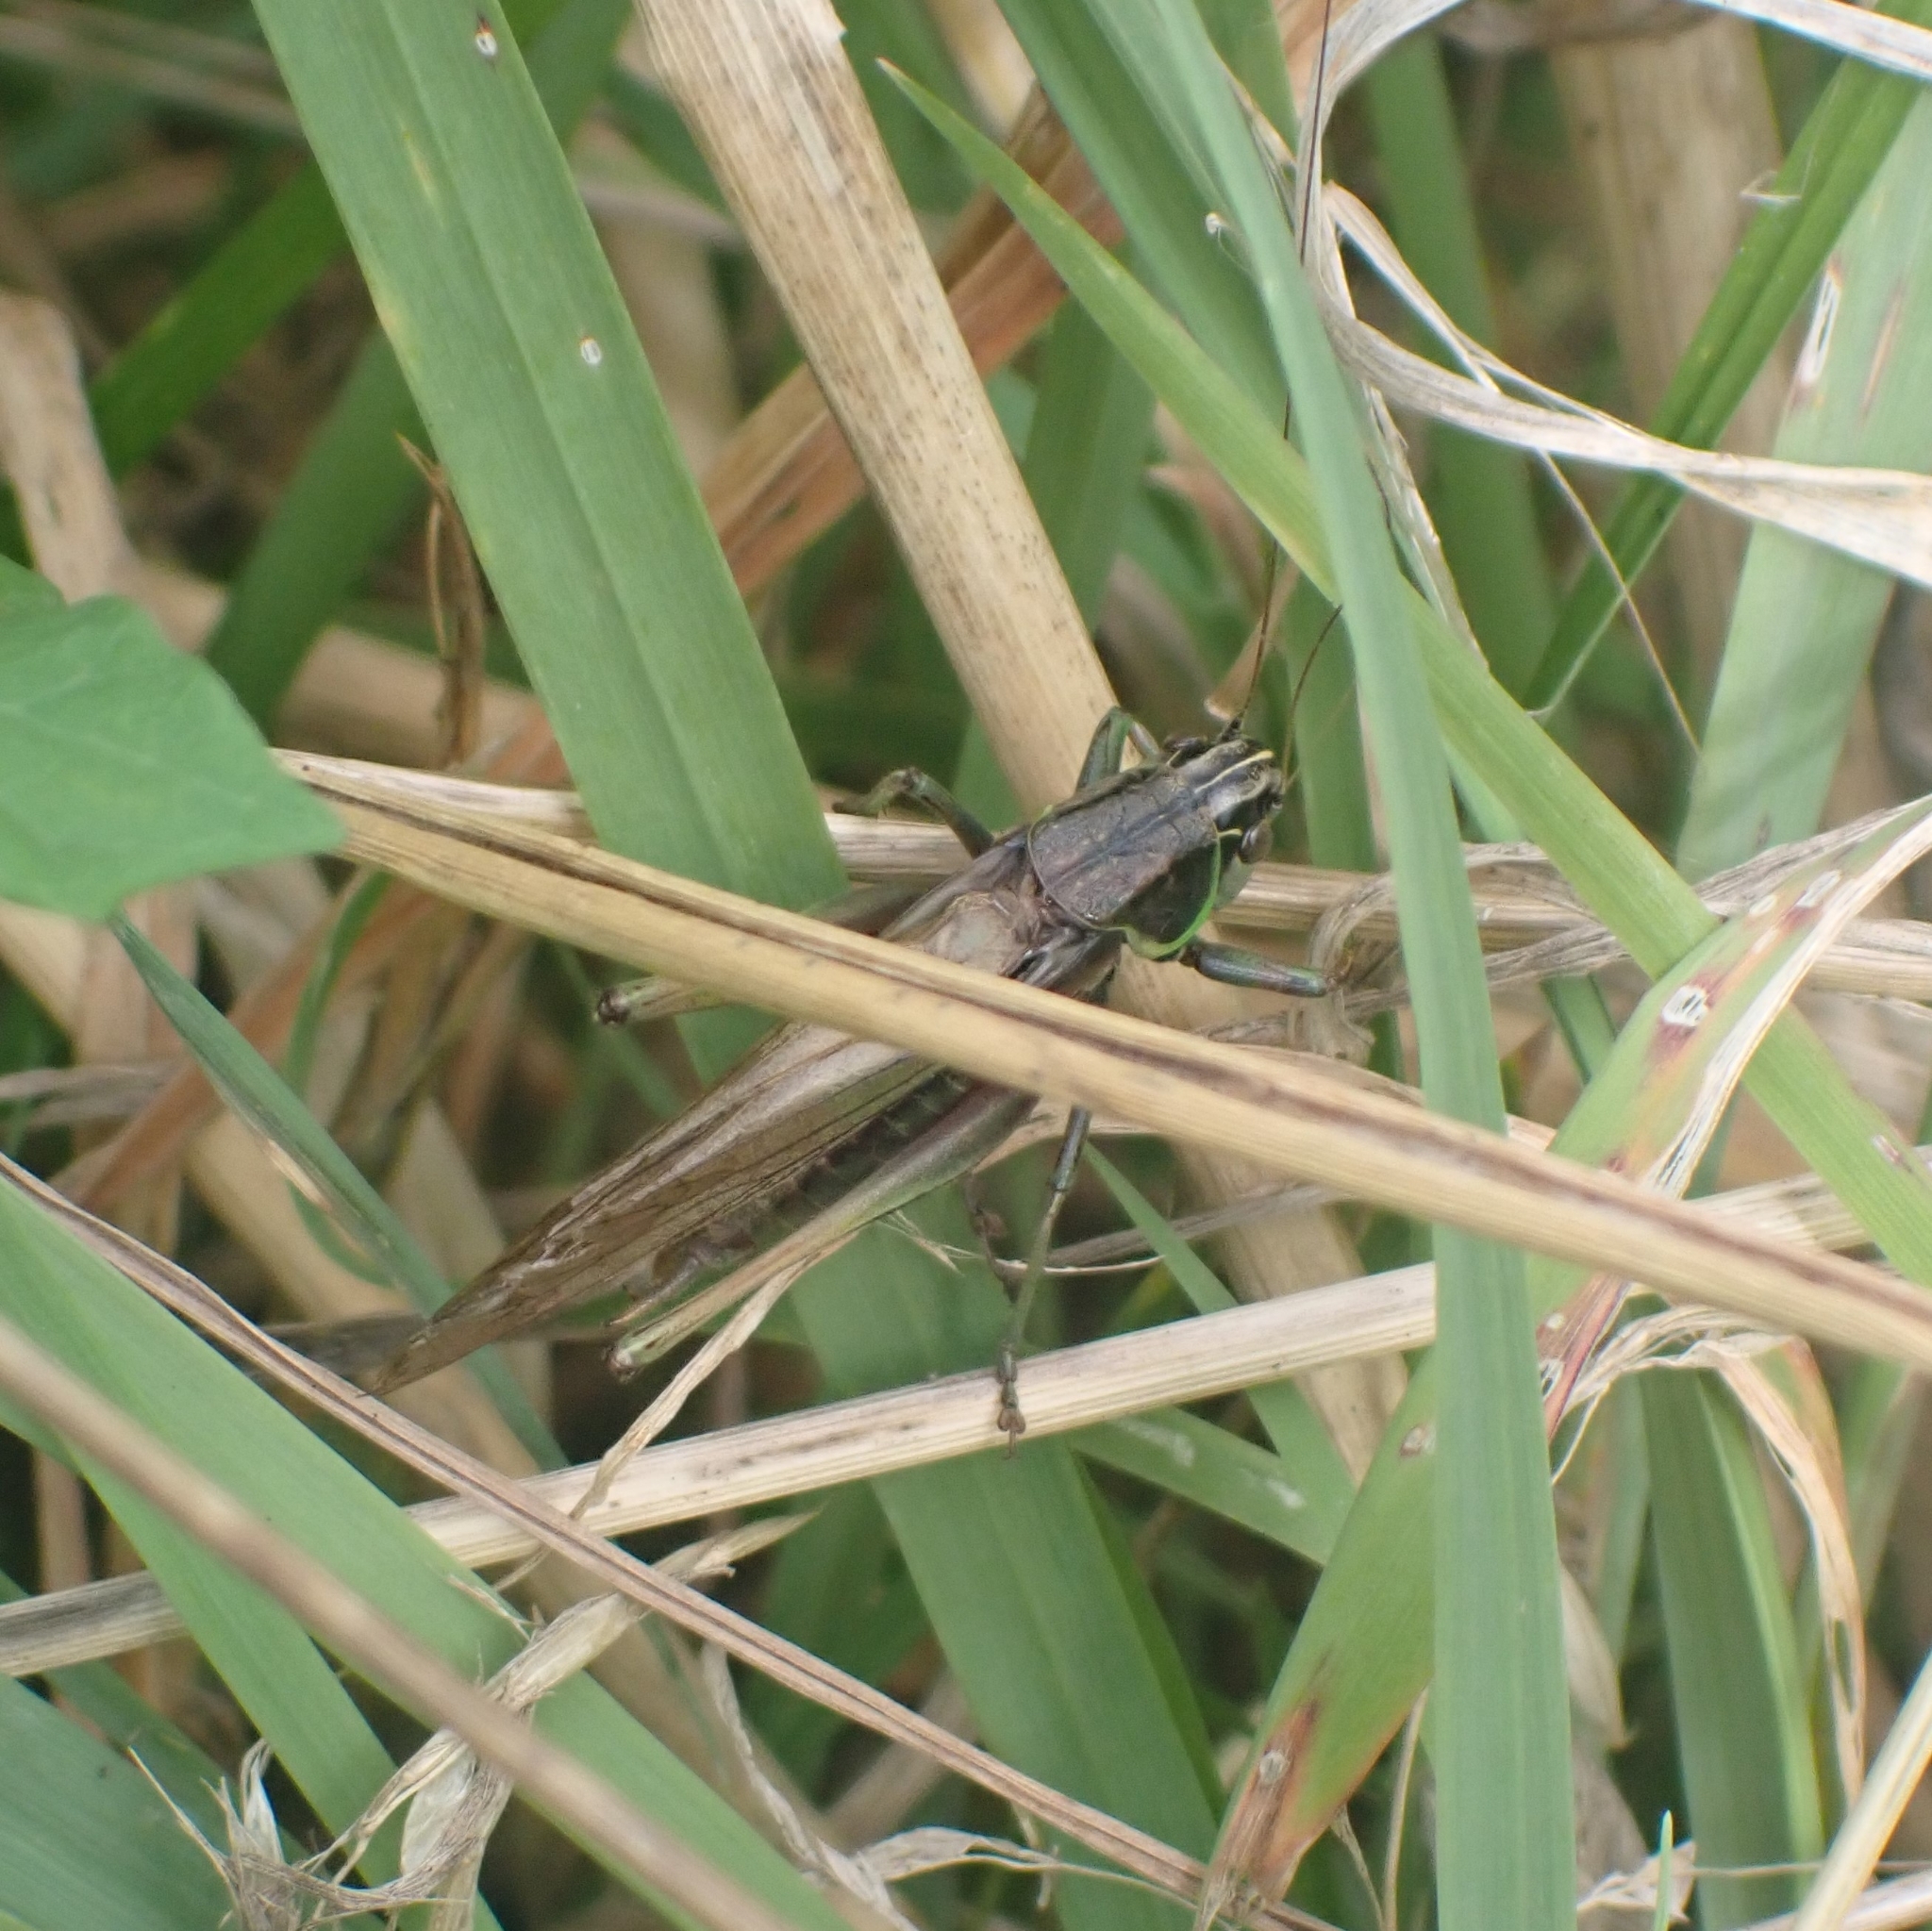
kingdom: Animalia
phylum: Arthropoda
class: Insecta
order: Orthoptera
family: Tettigoniidae
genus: Roeseliana
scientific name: Roeseliana roeselii
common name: Roesel's bush cricket
